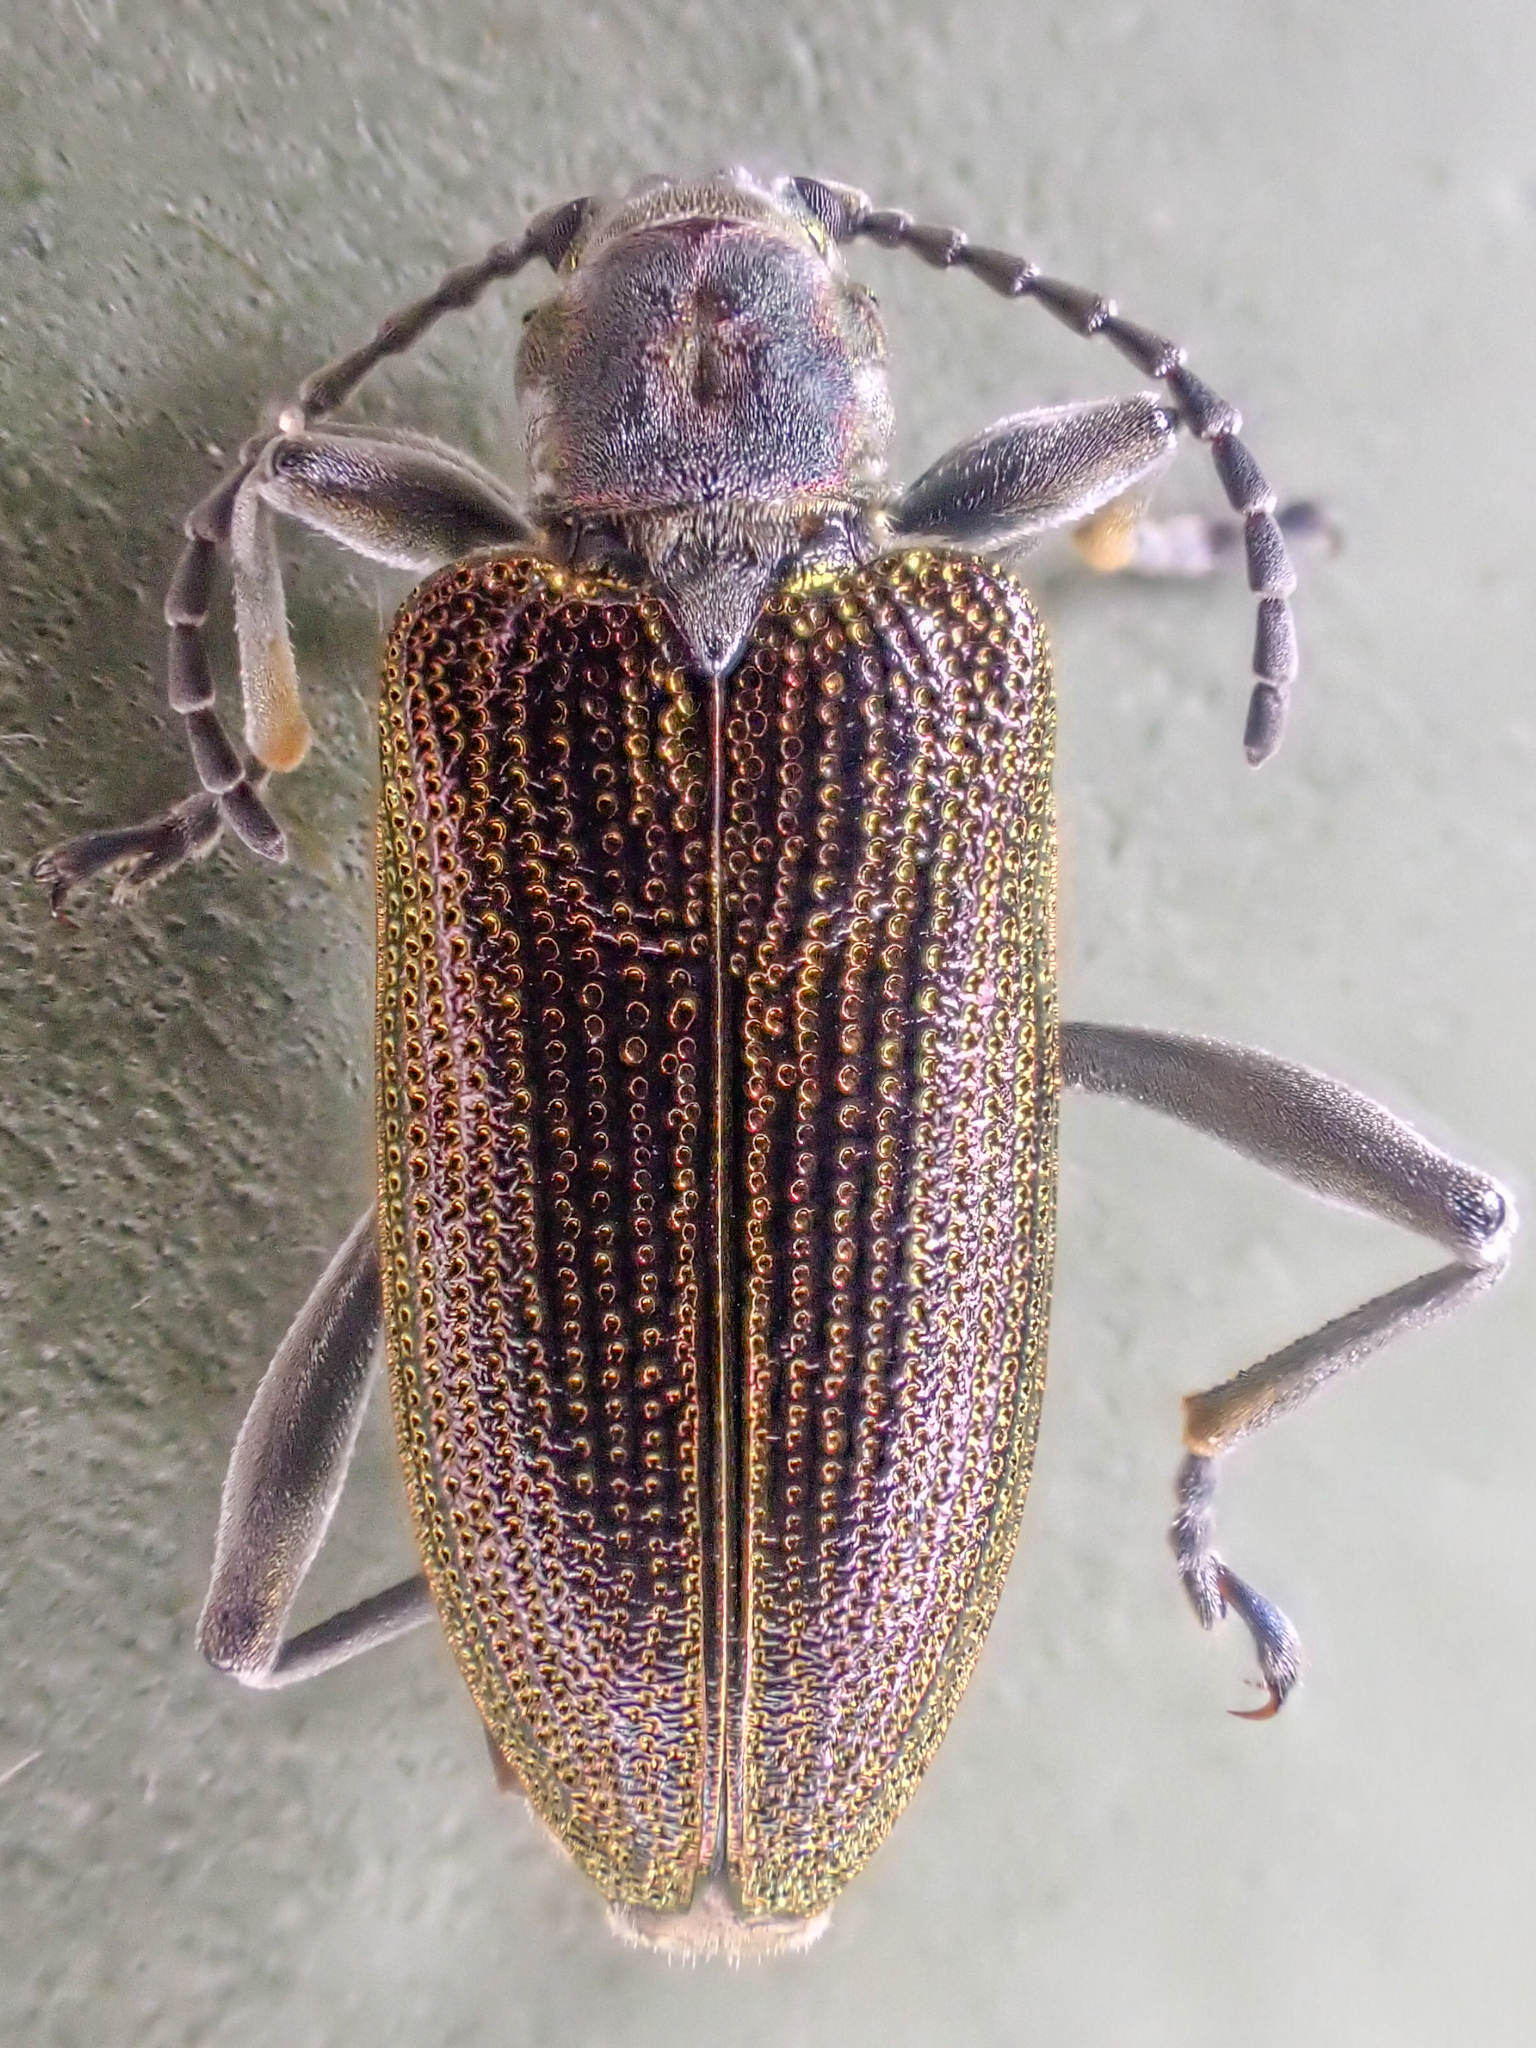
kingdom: Animalia
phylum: Arthropoda
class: Insecta
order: Coleoptera
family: Chrysomelidae
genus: Donacia
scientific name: Donacia hirticollis
